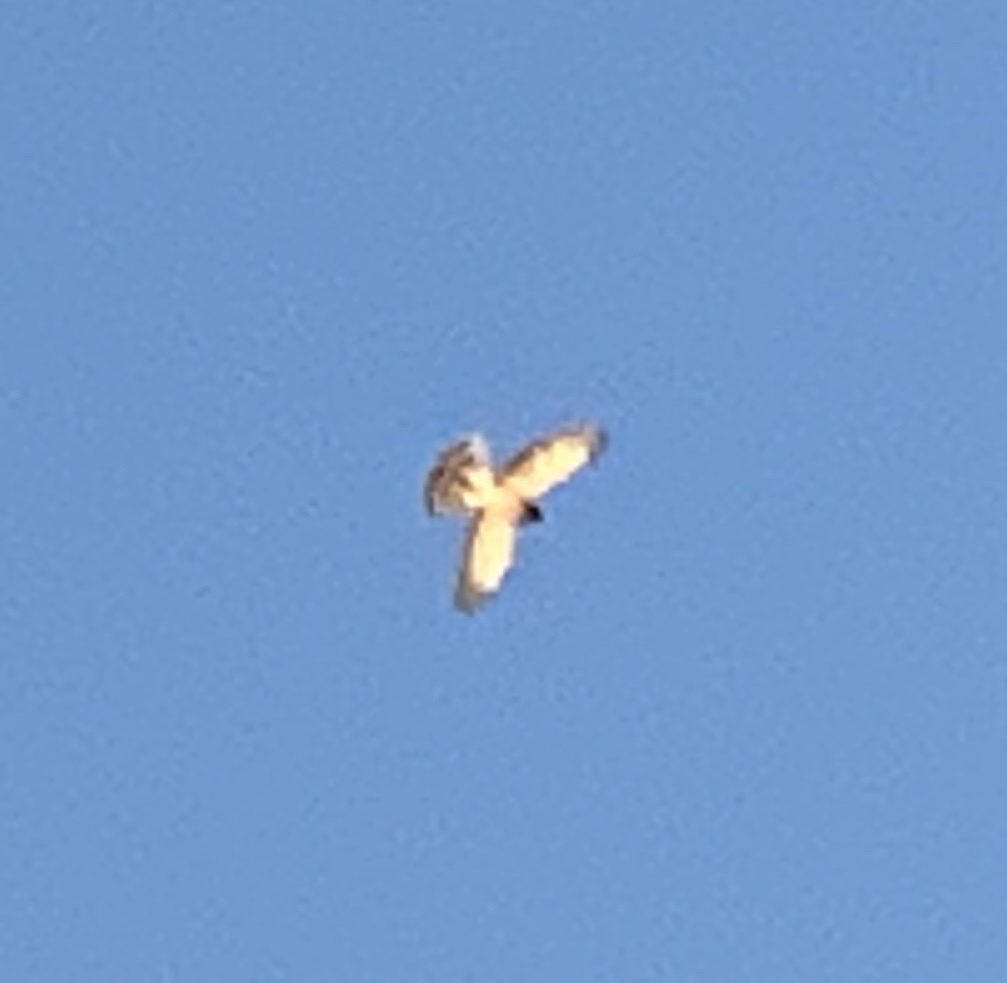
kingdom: Animalia
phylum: Chordata
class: Aves
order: Accipitriformes
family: Accipitridae
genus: Circus
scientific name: Circus cyaneus
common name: Hen harrier
